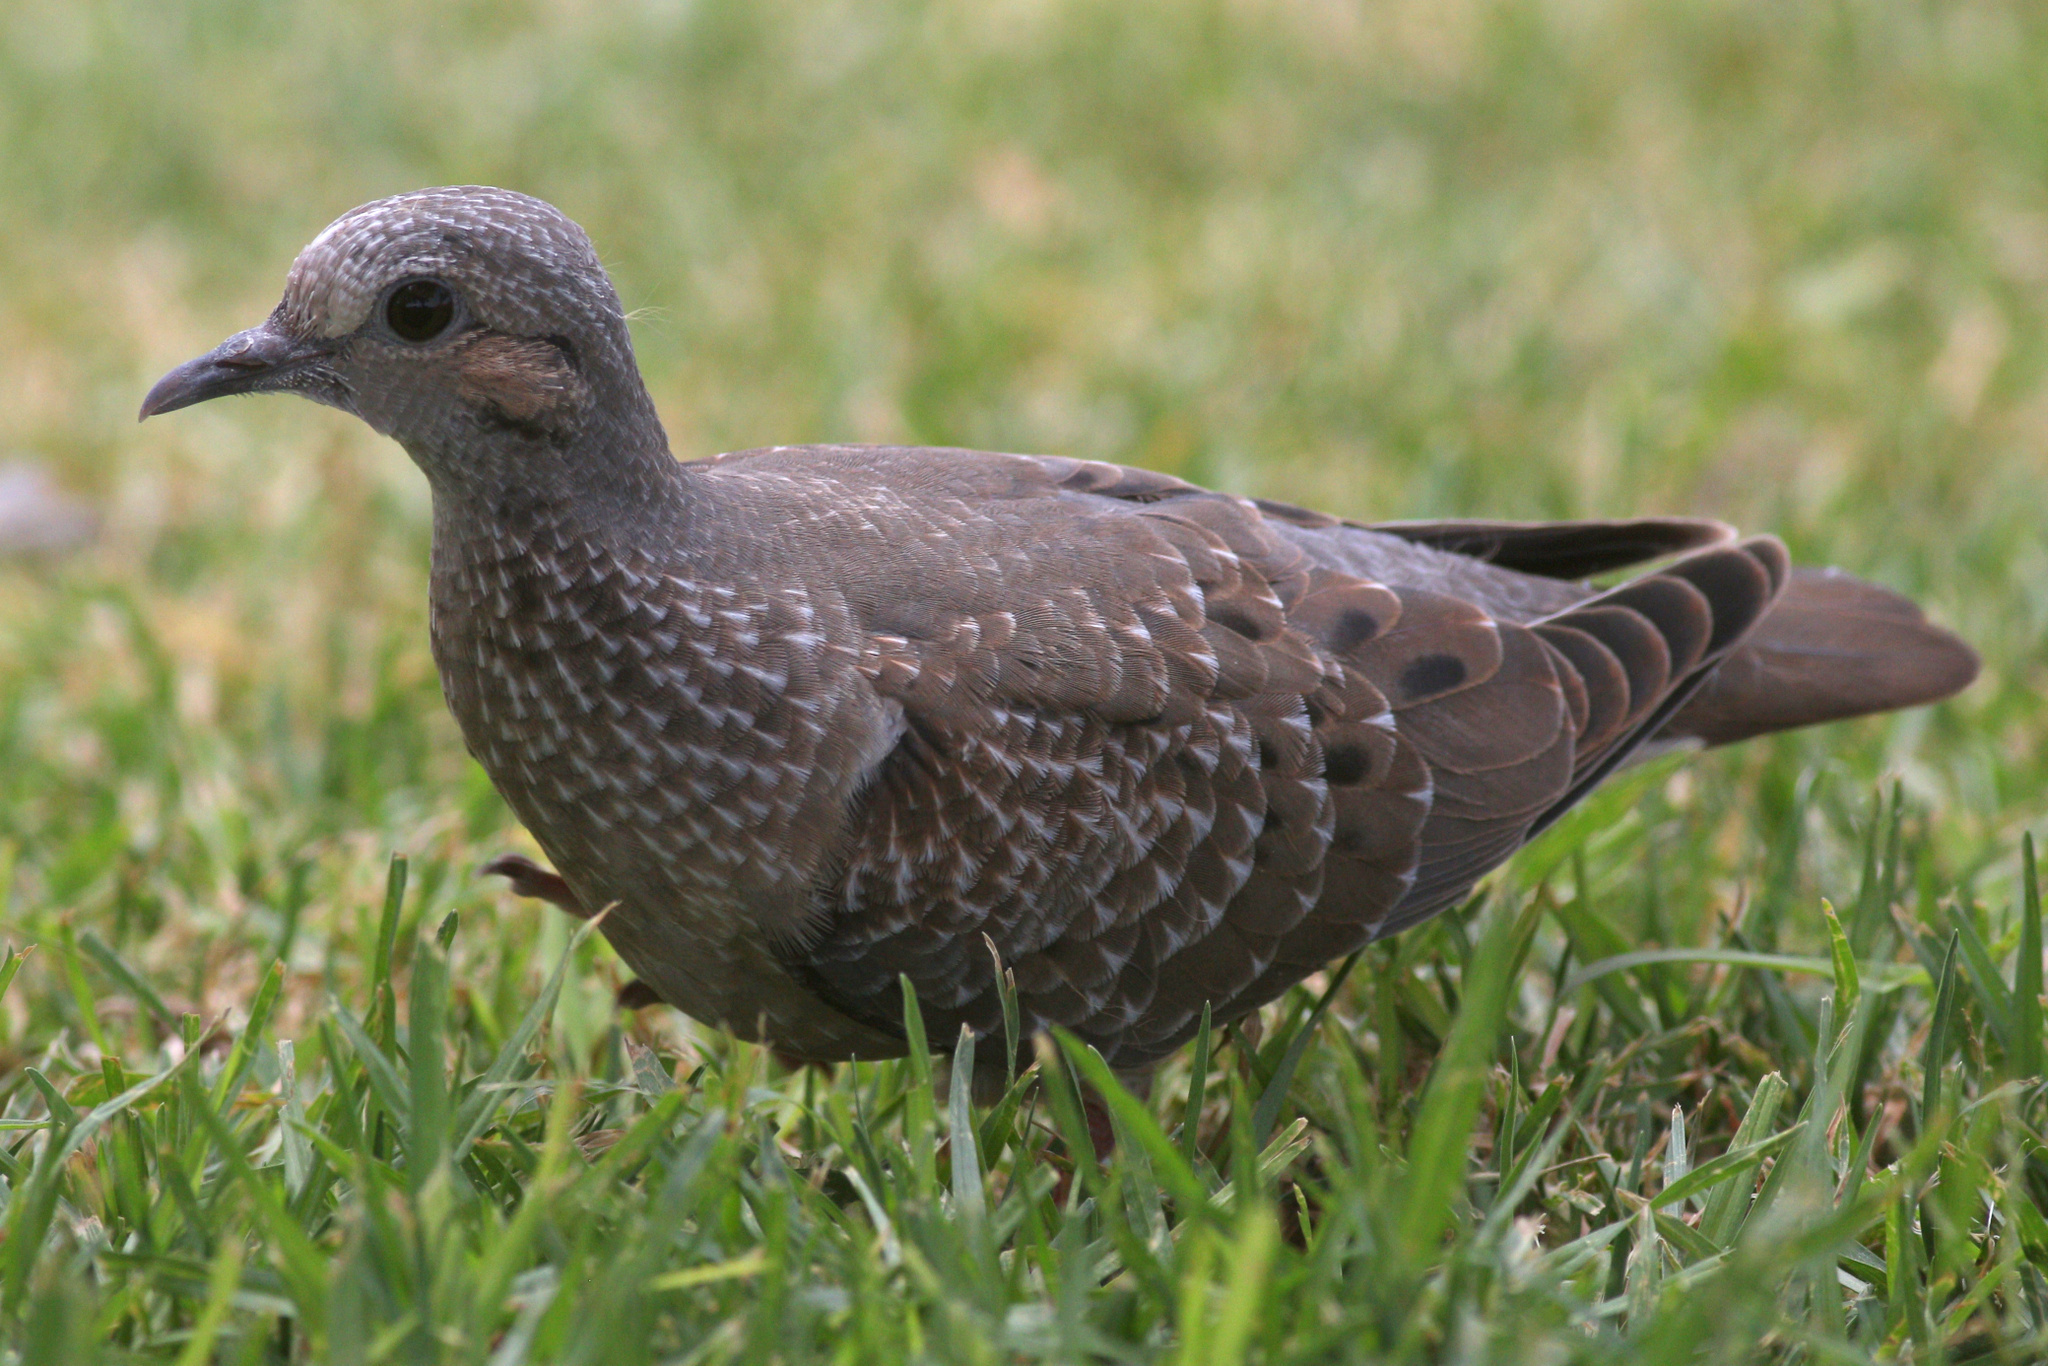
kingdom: Animalia
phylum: Chordata
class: Aves
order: Columbiformes
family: Columbidae
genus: Zenaida
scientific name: Zenaida auriculata
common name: Eared dove
